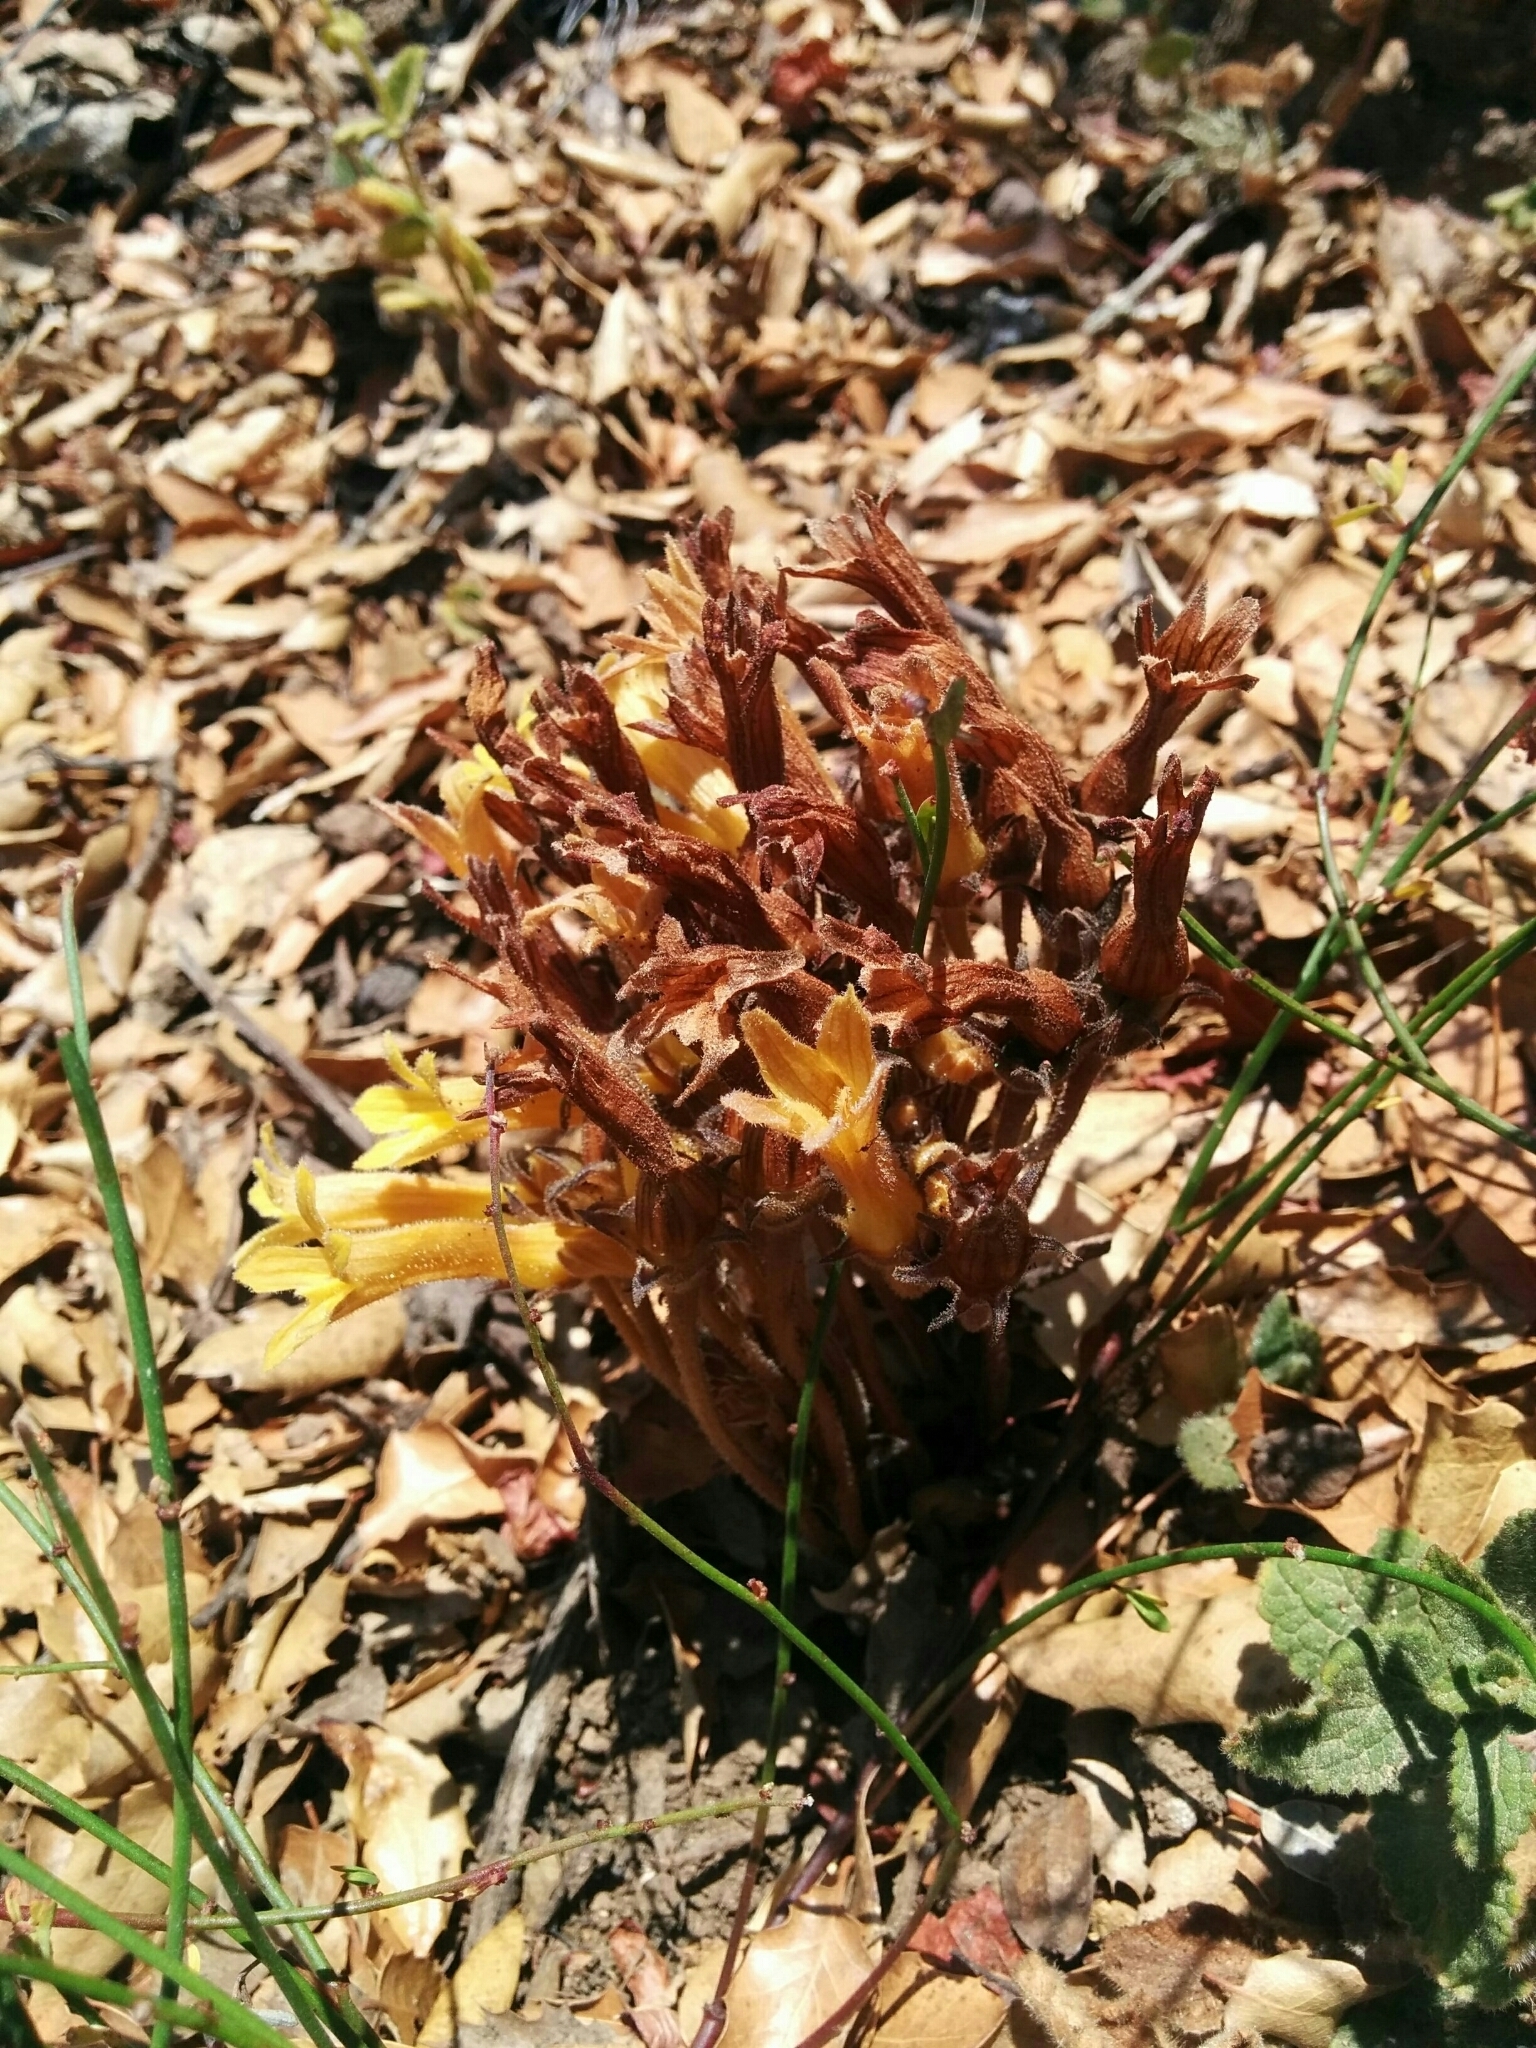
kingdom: Plantae
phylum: Tracheophyta
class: Magnoliopsida
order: Lamiales
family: Orobanchaceae
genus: Aphyllon
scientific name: Aphyllon franciscanum
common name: San francisco broomrape
